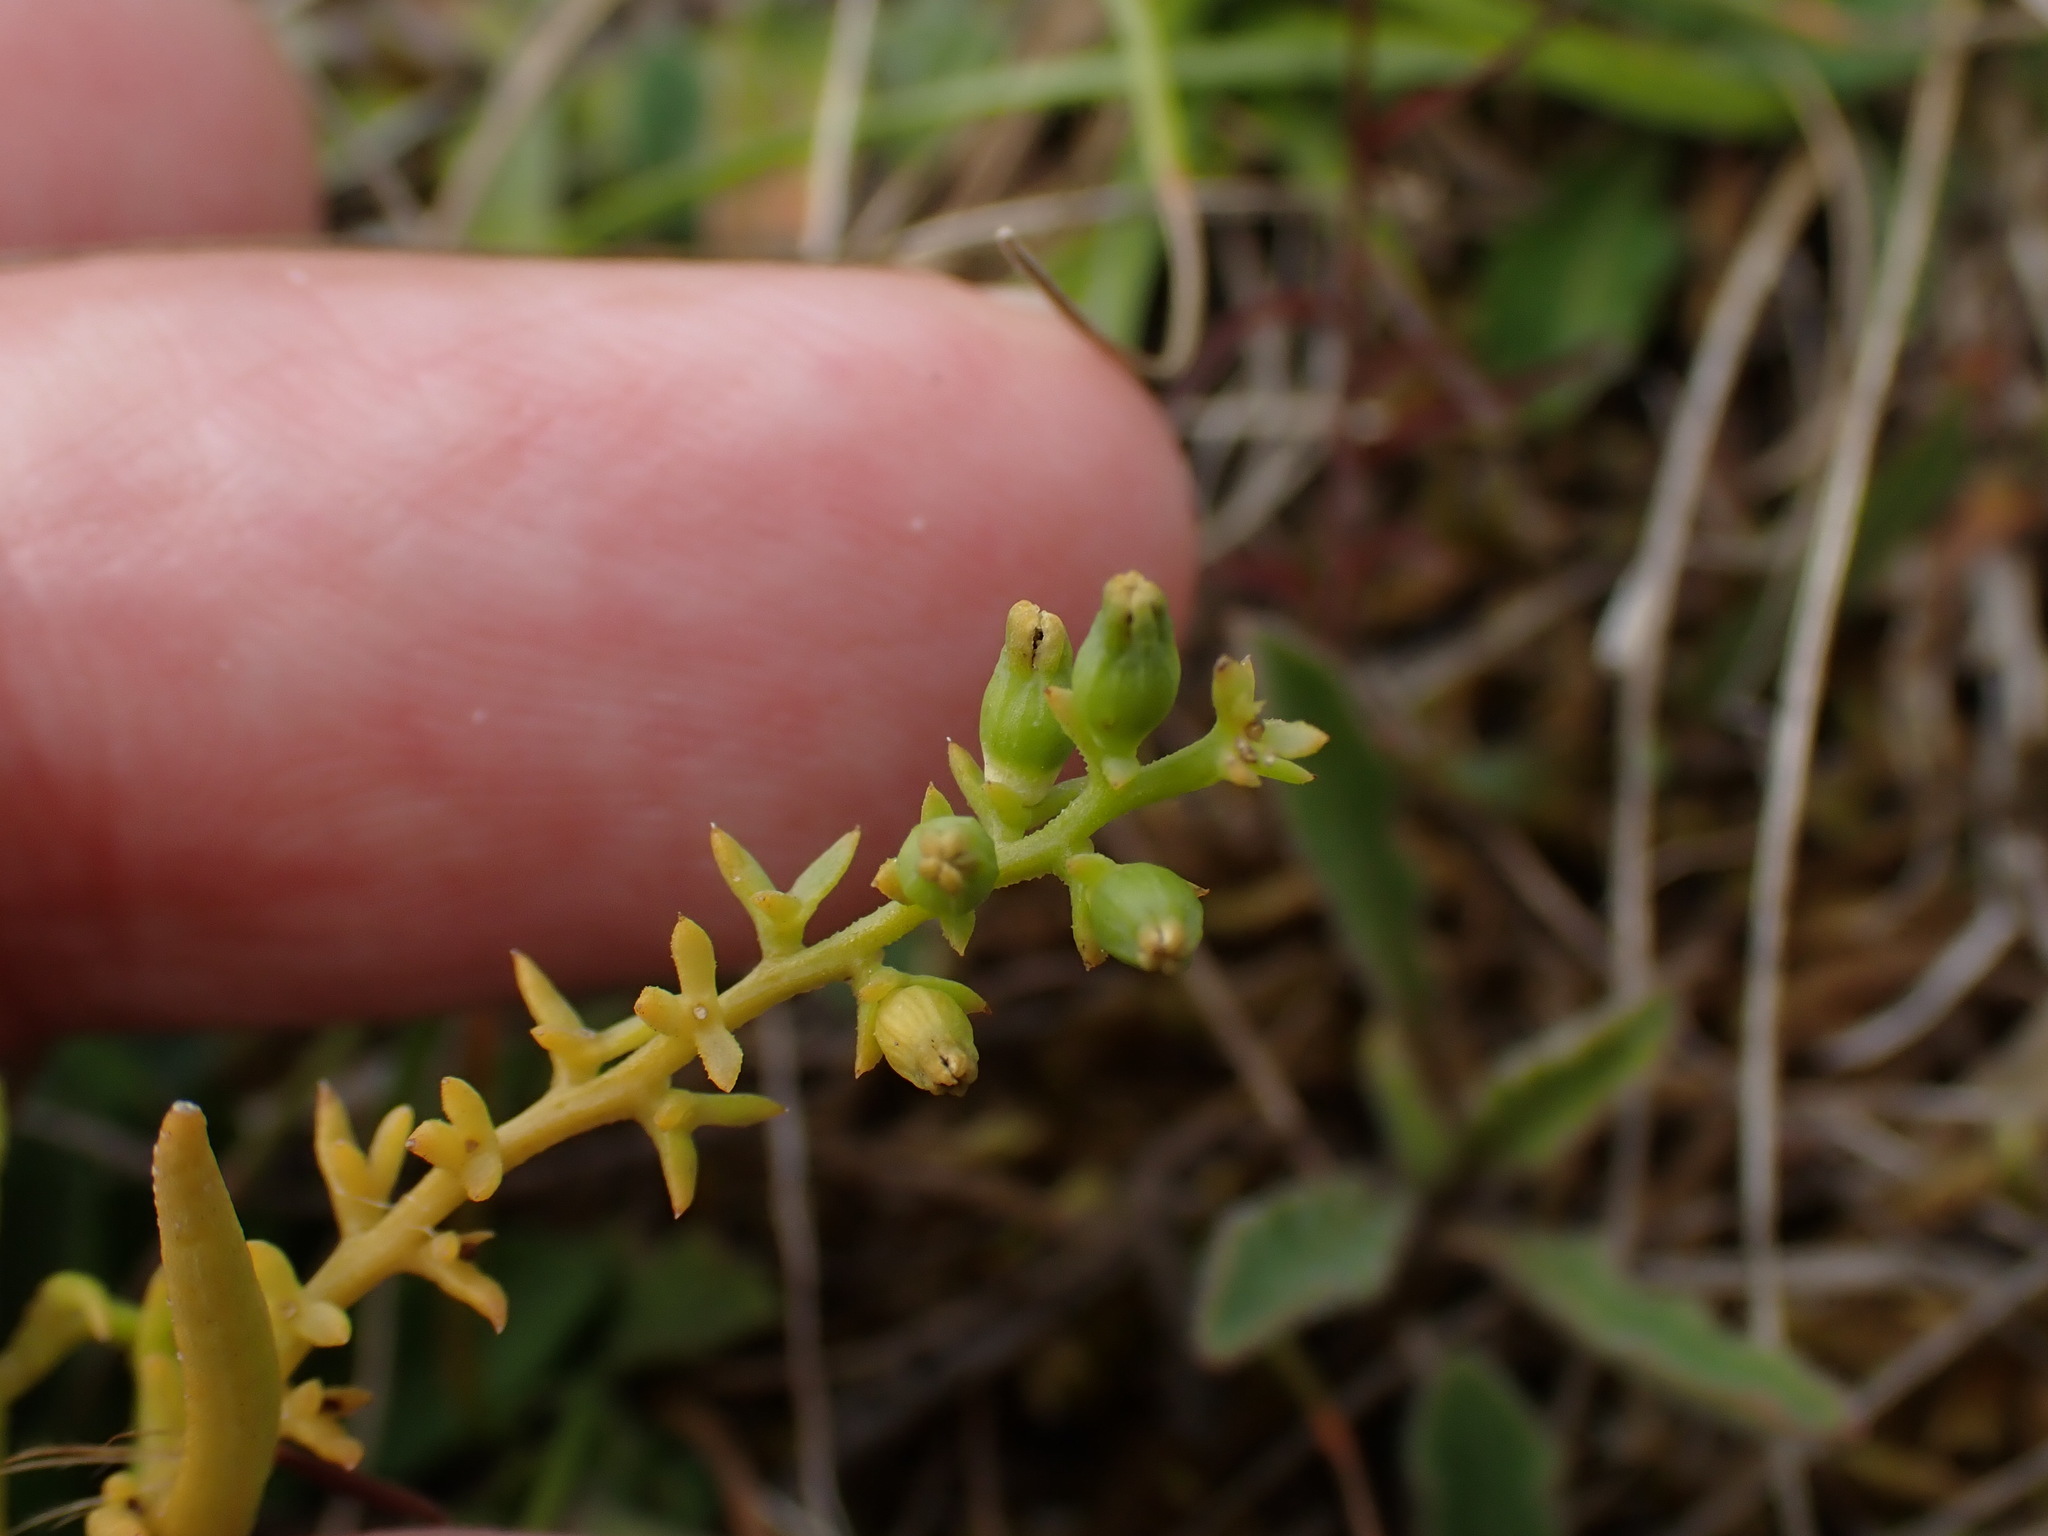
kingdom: Plantae
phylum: Tracheophyta
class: Magnoliopsida
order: Santalales
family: Thesiaceae
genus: Thesium
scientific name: Thesium humifusum
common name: Bastard-toadflax
